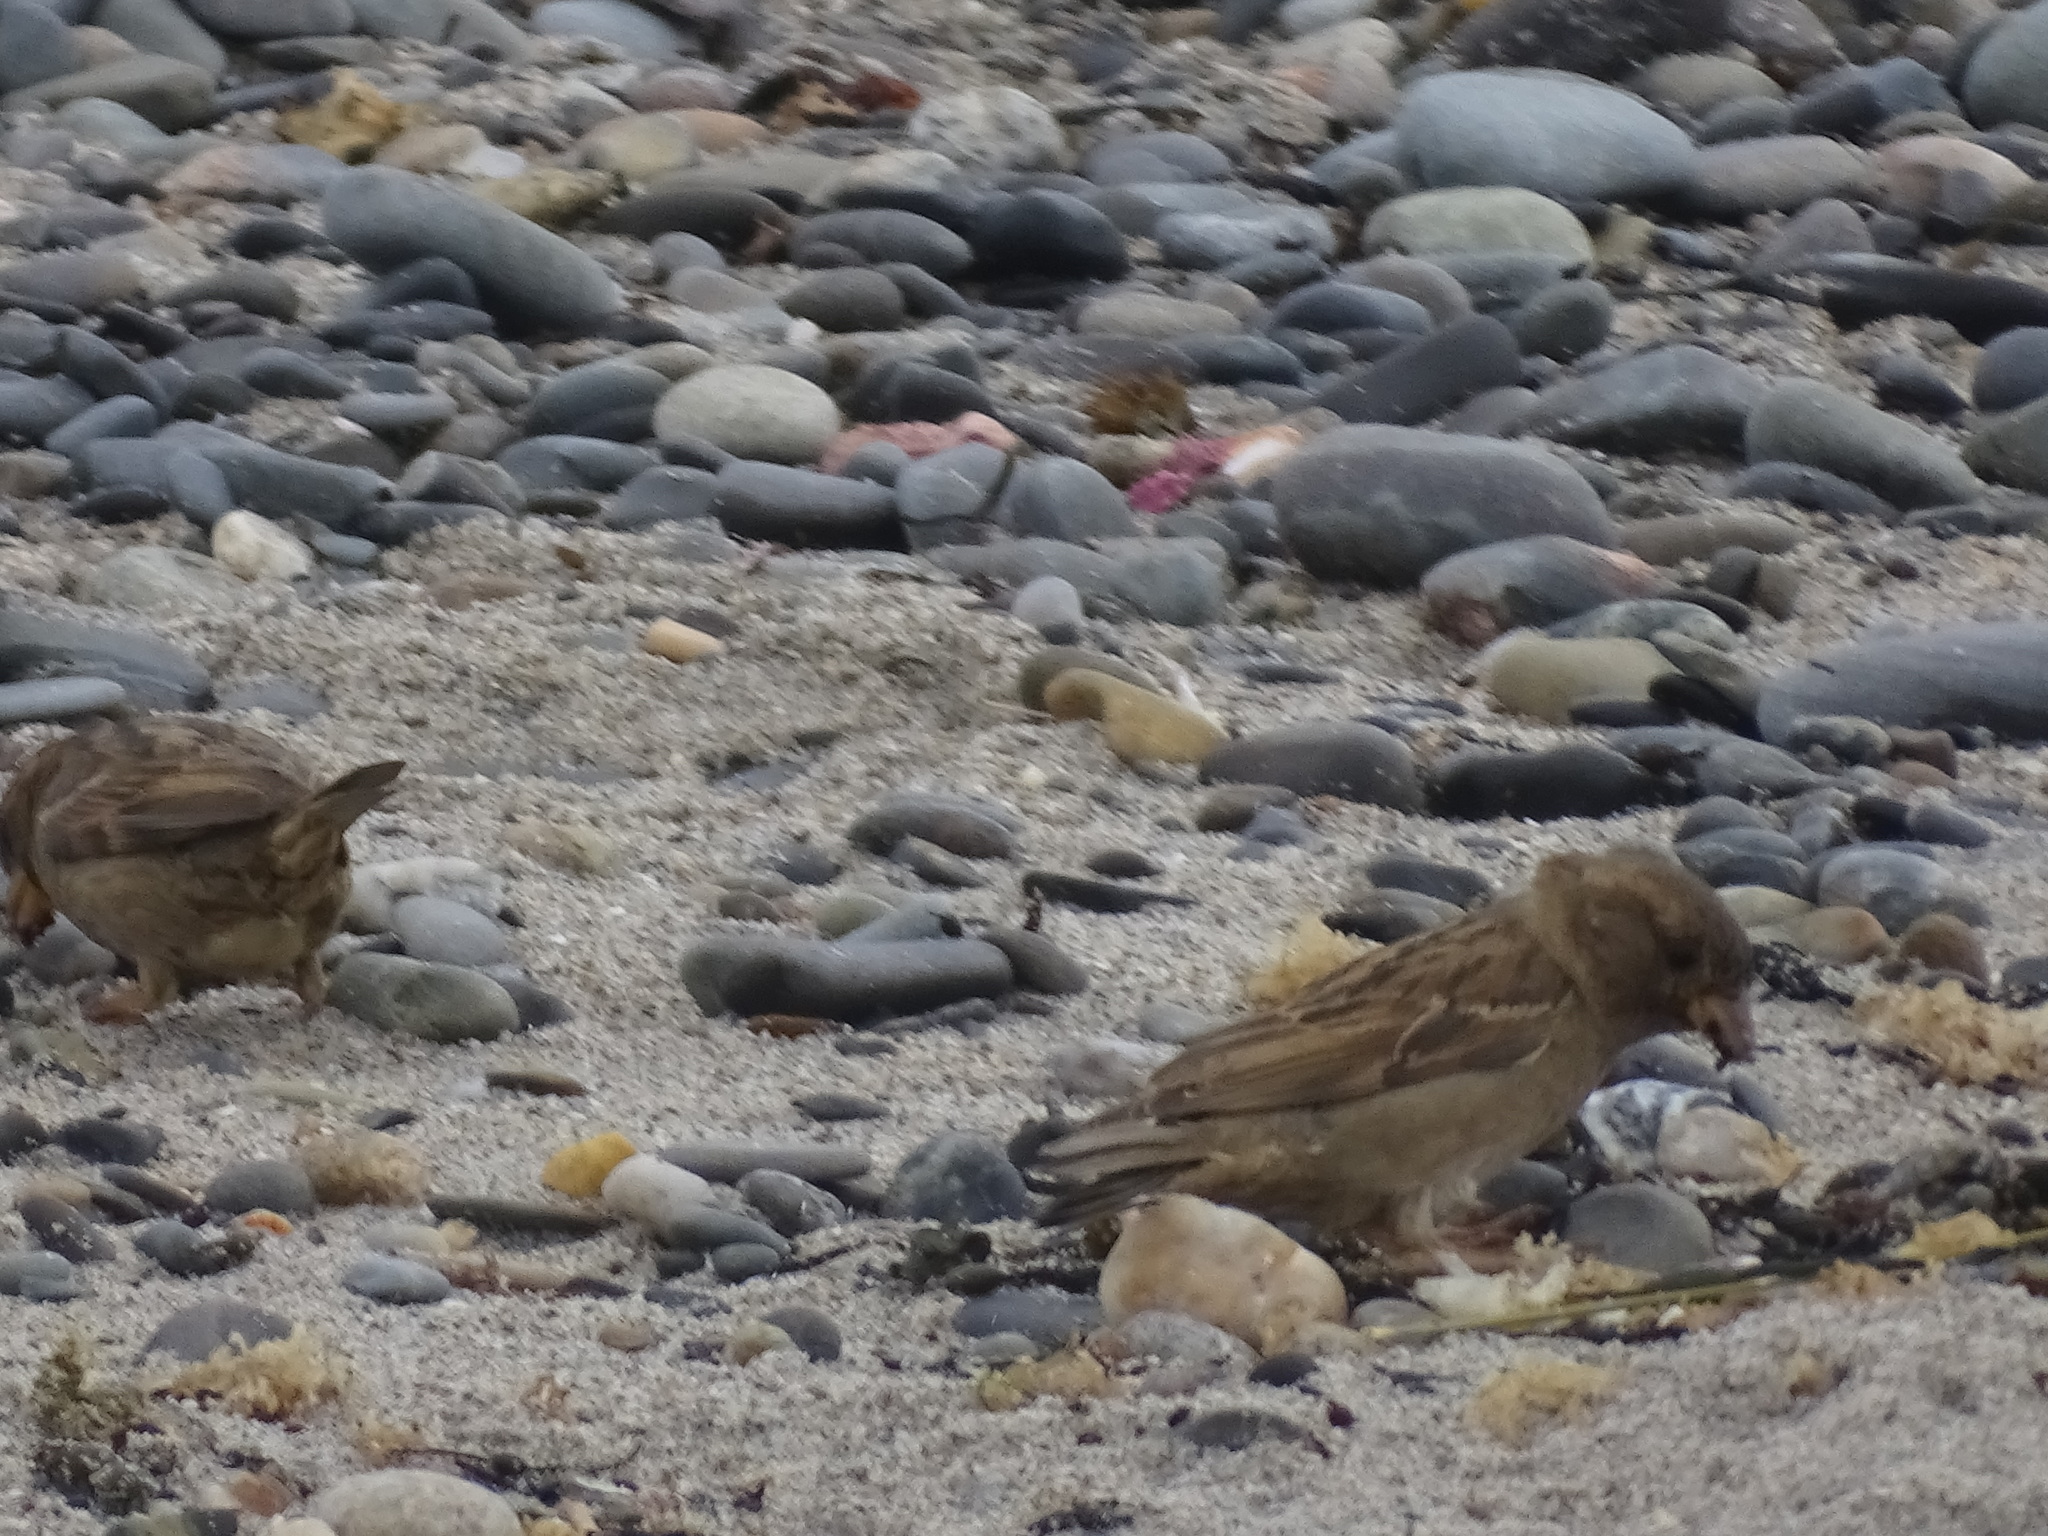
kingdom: Animalia
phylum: Chordata
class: Aves
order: Passeriformes
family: Passeridae
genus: Passer
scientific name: Passer domesticus
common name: House sparrow
